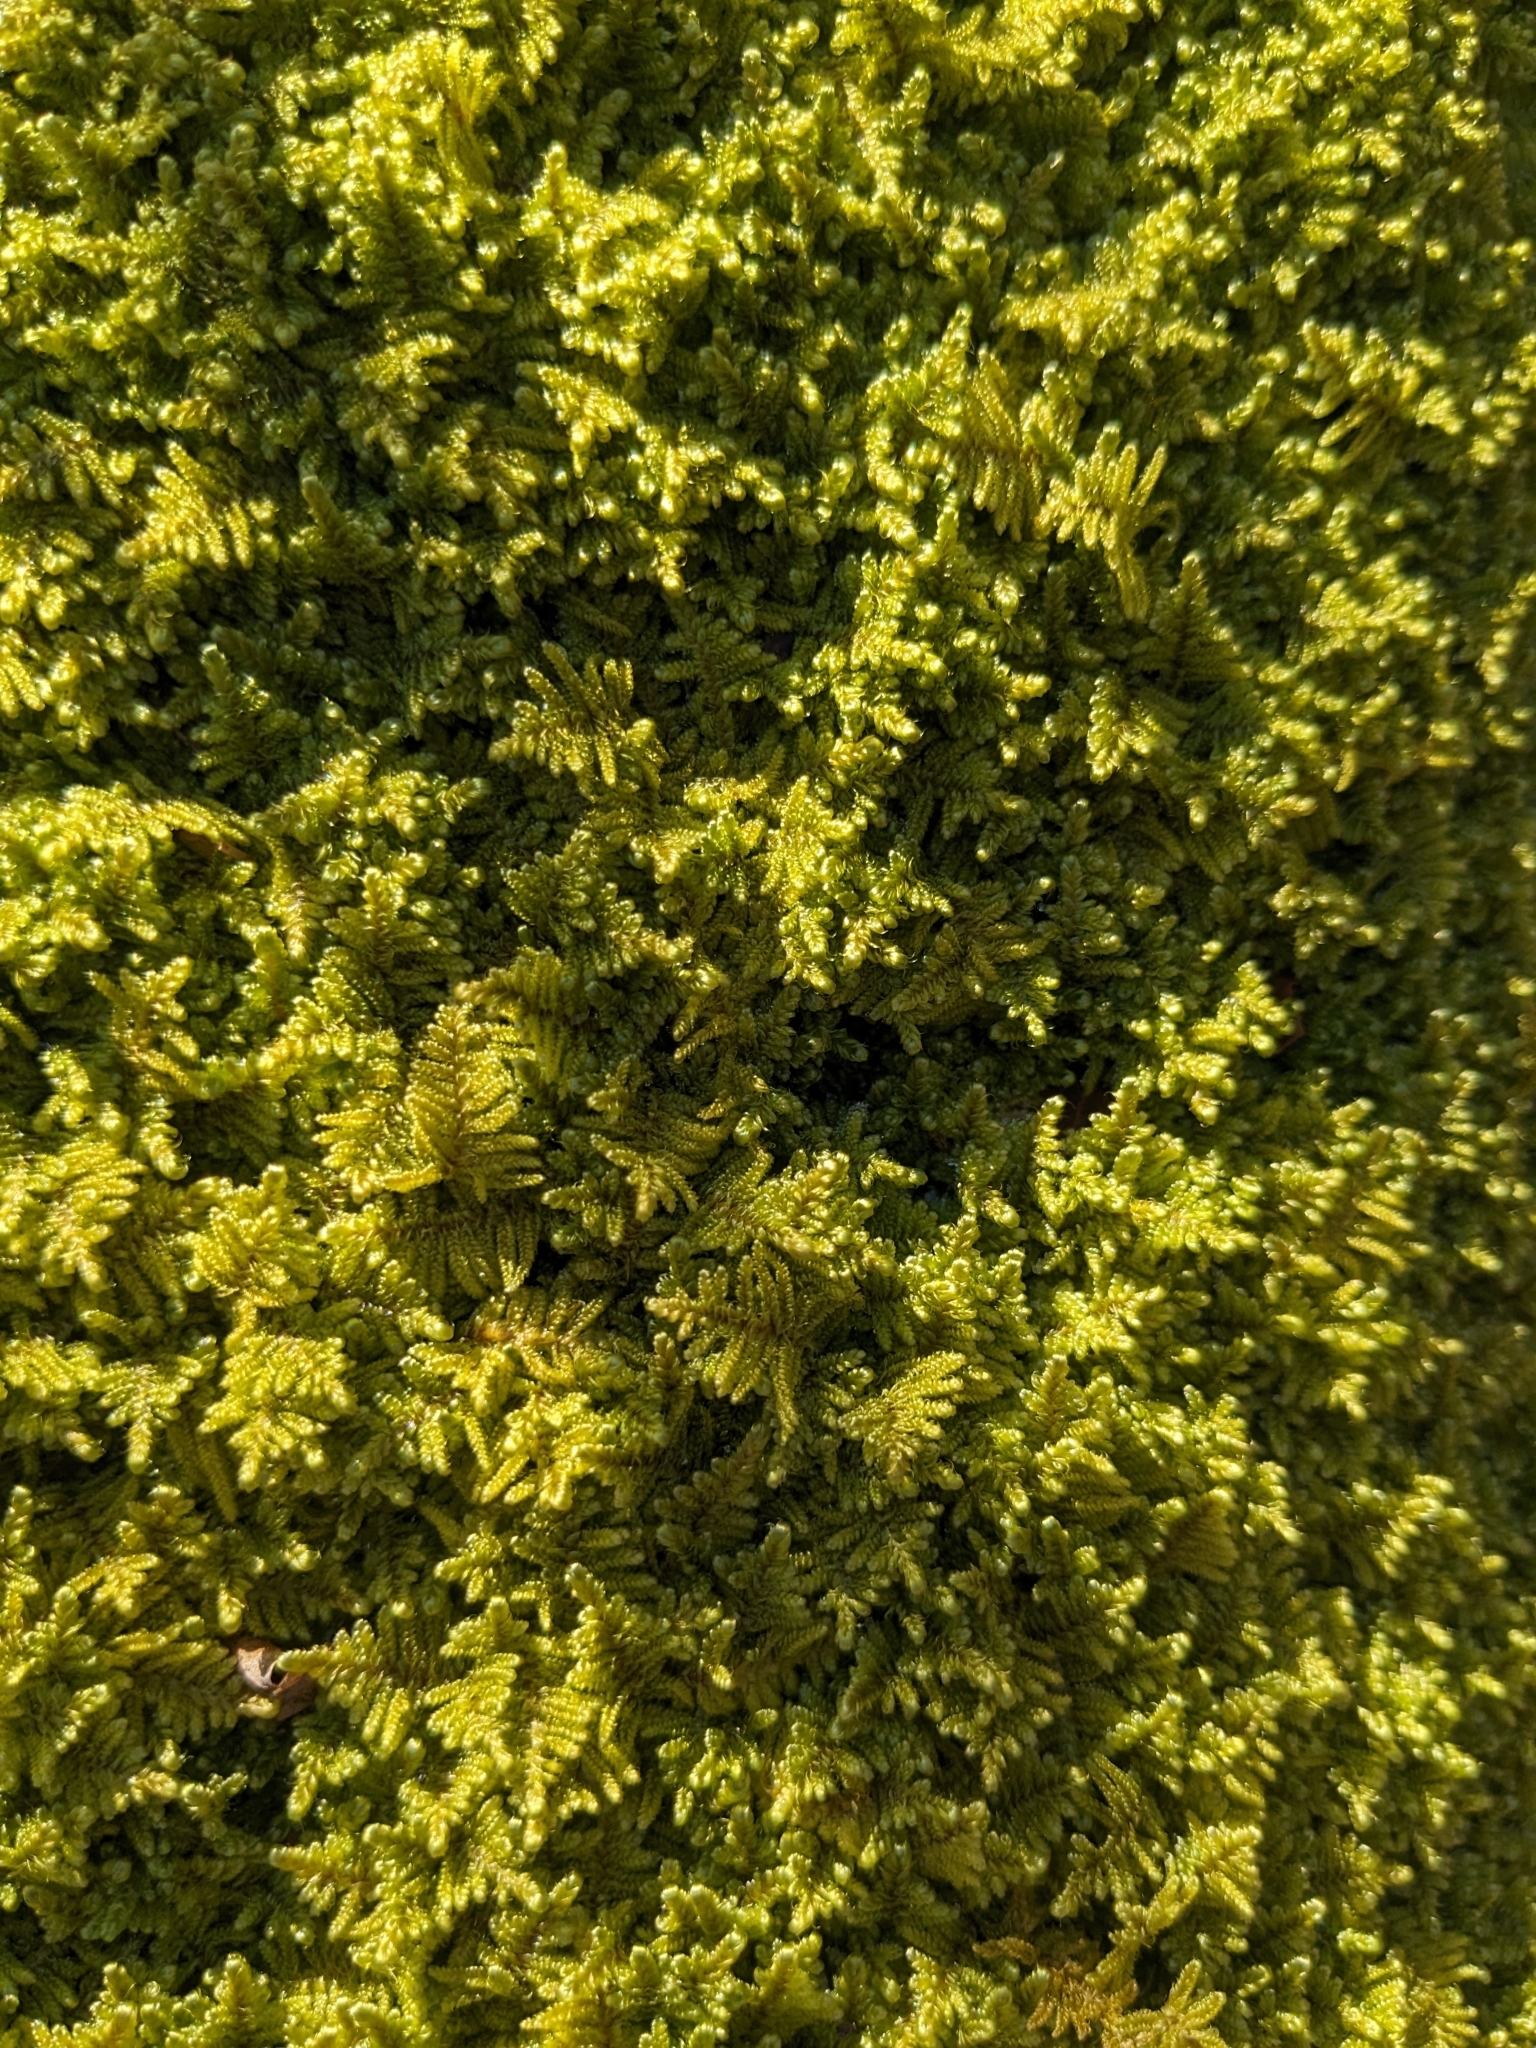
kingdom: Plantae
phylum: Bryophyta
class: Bryopsida
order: Hypnales
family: Callicladiaceae
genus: Callicladium
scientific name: Callicladium imponens
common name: Brocade moss
